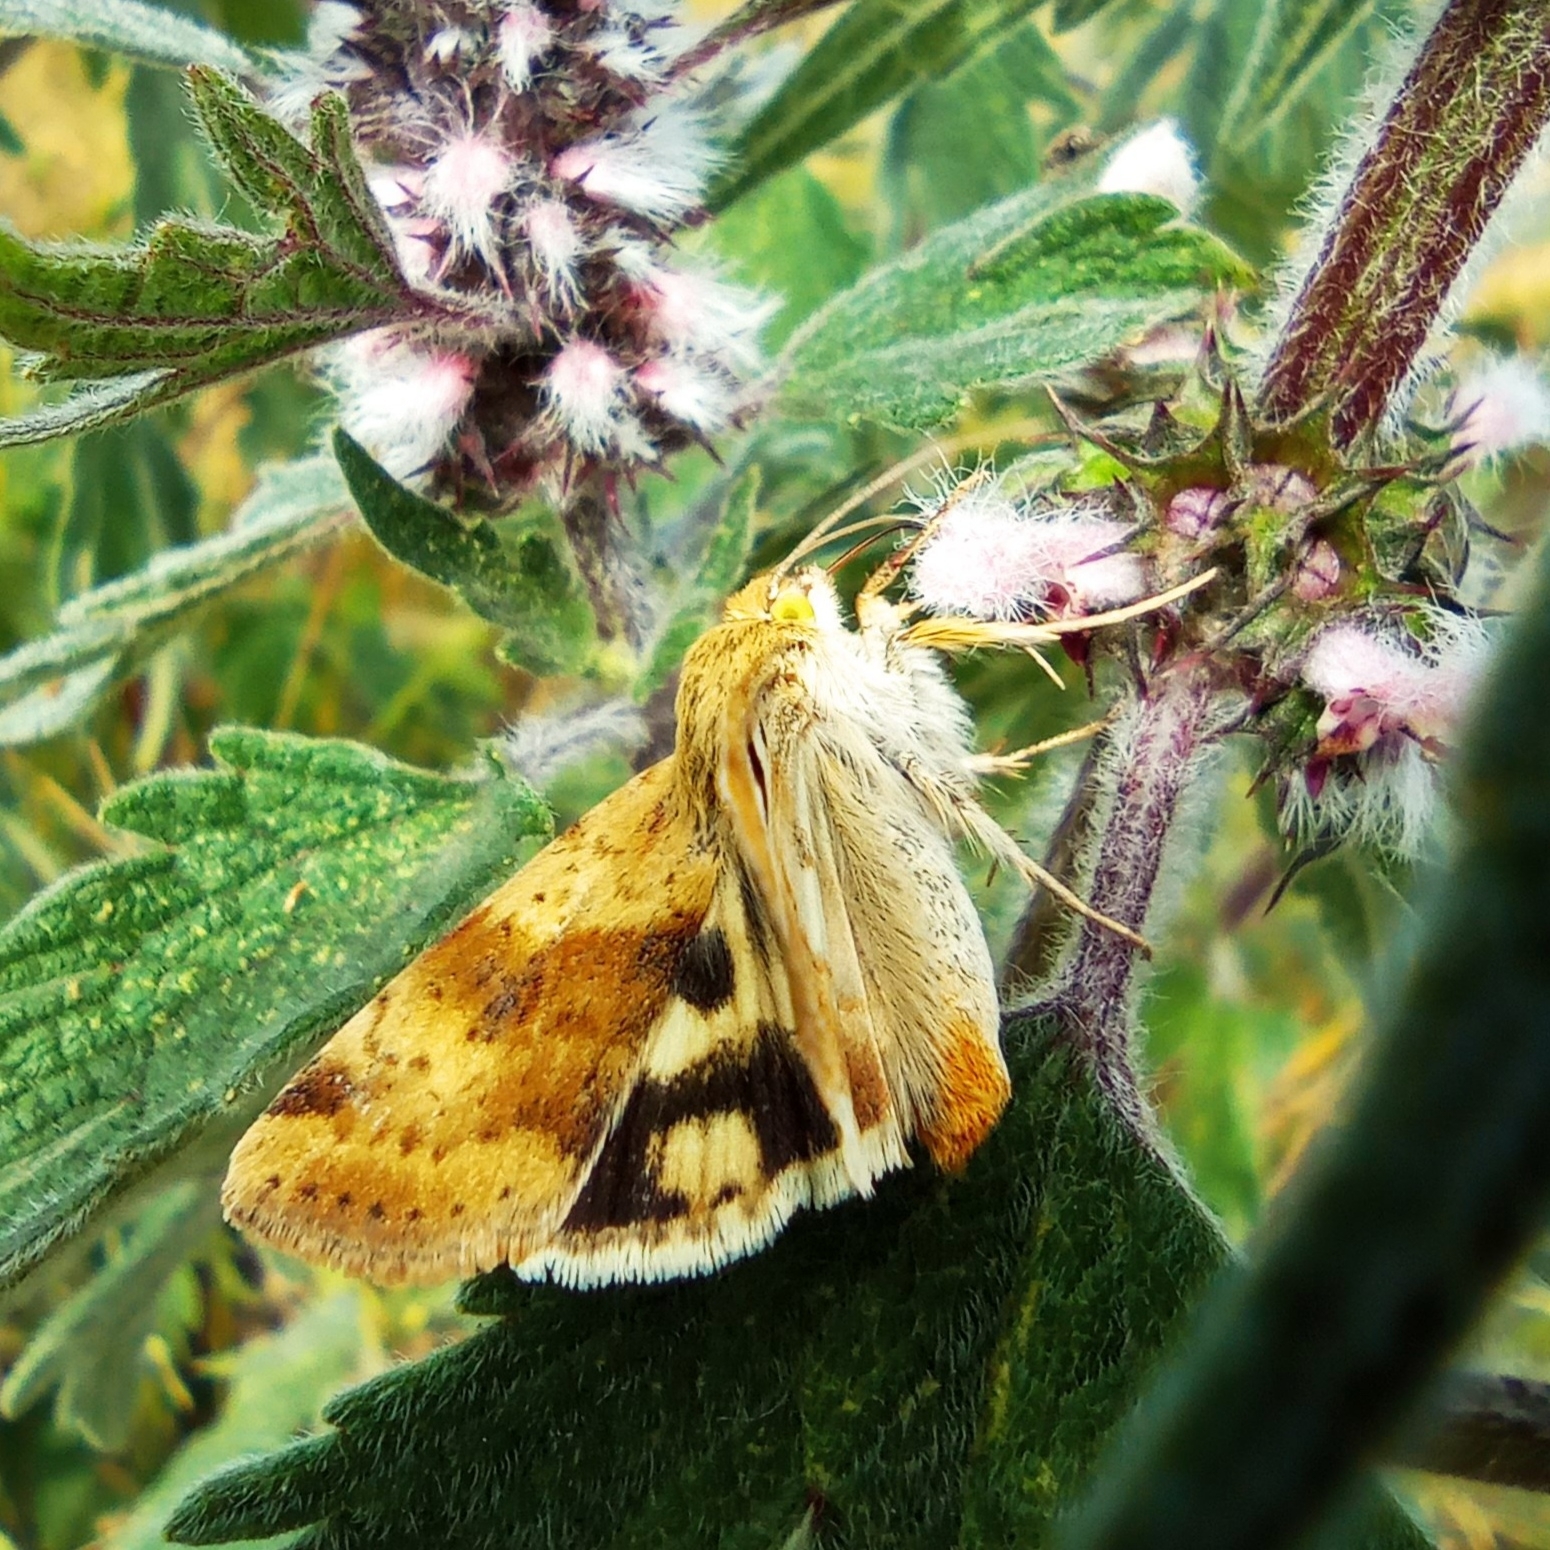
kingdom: Animalia
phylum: Arthropoda
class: Insecta
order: Lepidoptera
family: Noctuidae
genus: Heliothis
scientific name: Heliothis adaucta
